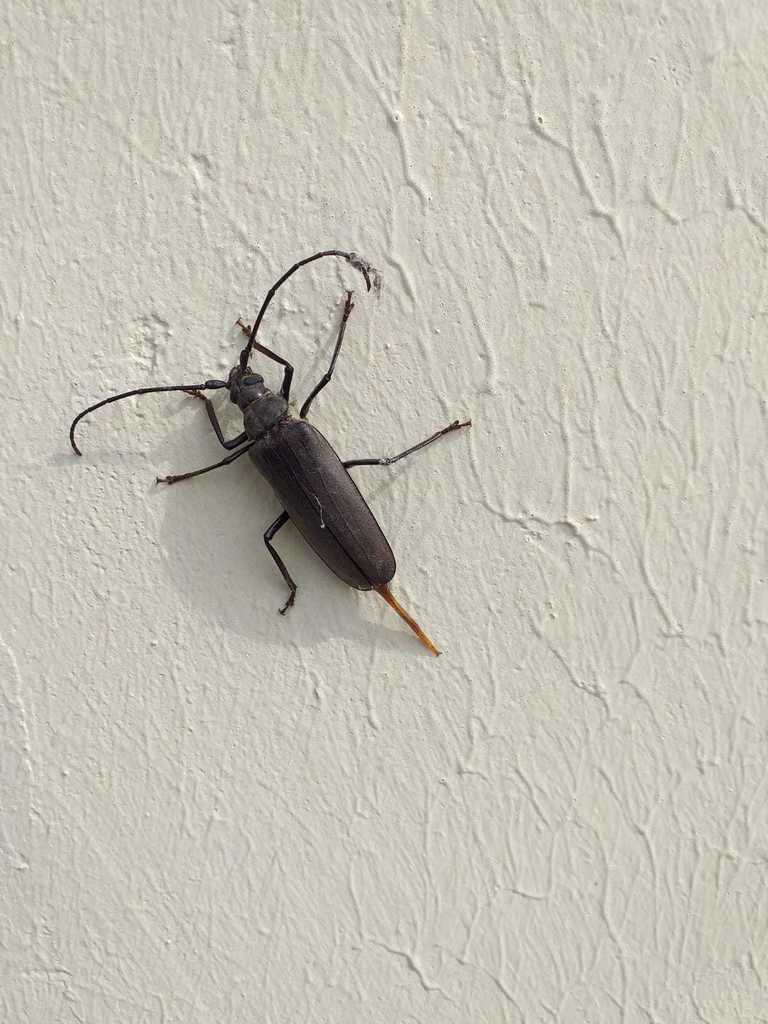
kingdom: Animalia
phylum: Arthropoda
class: Insecta
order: Coleoptera
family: Cerambycidae
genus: Aegosoma
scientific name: Aegosoma scabricorne
